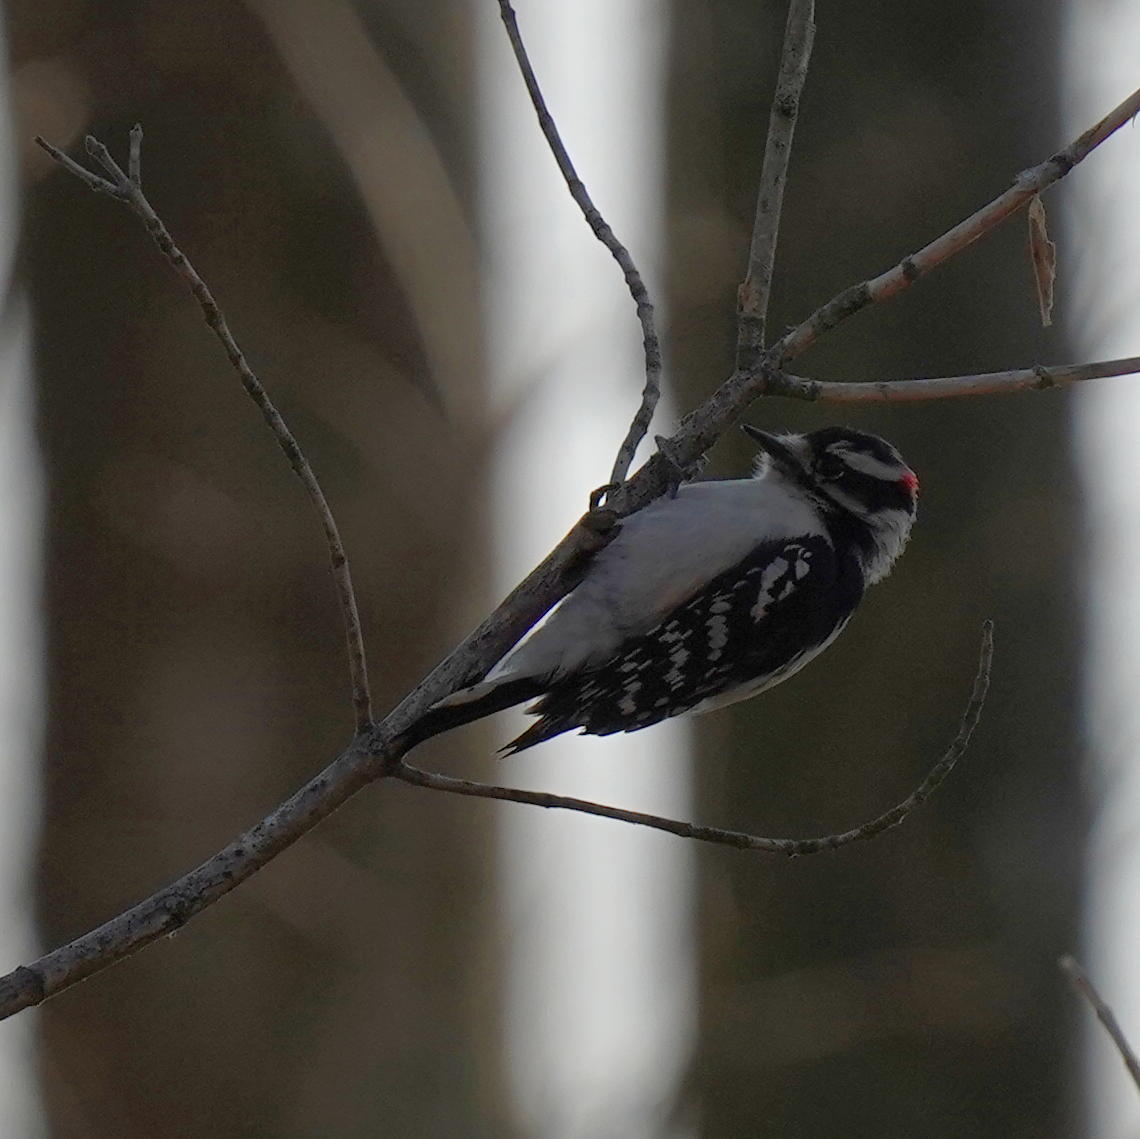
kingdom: Animalia
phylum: Chordata
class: Aves
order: Piciformes
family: Picidae
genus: Dryobates
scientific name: Dryobates pubescens
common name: Downy woodpecker
